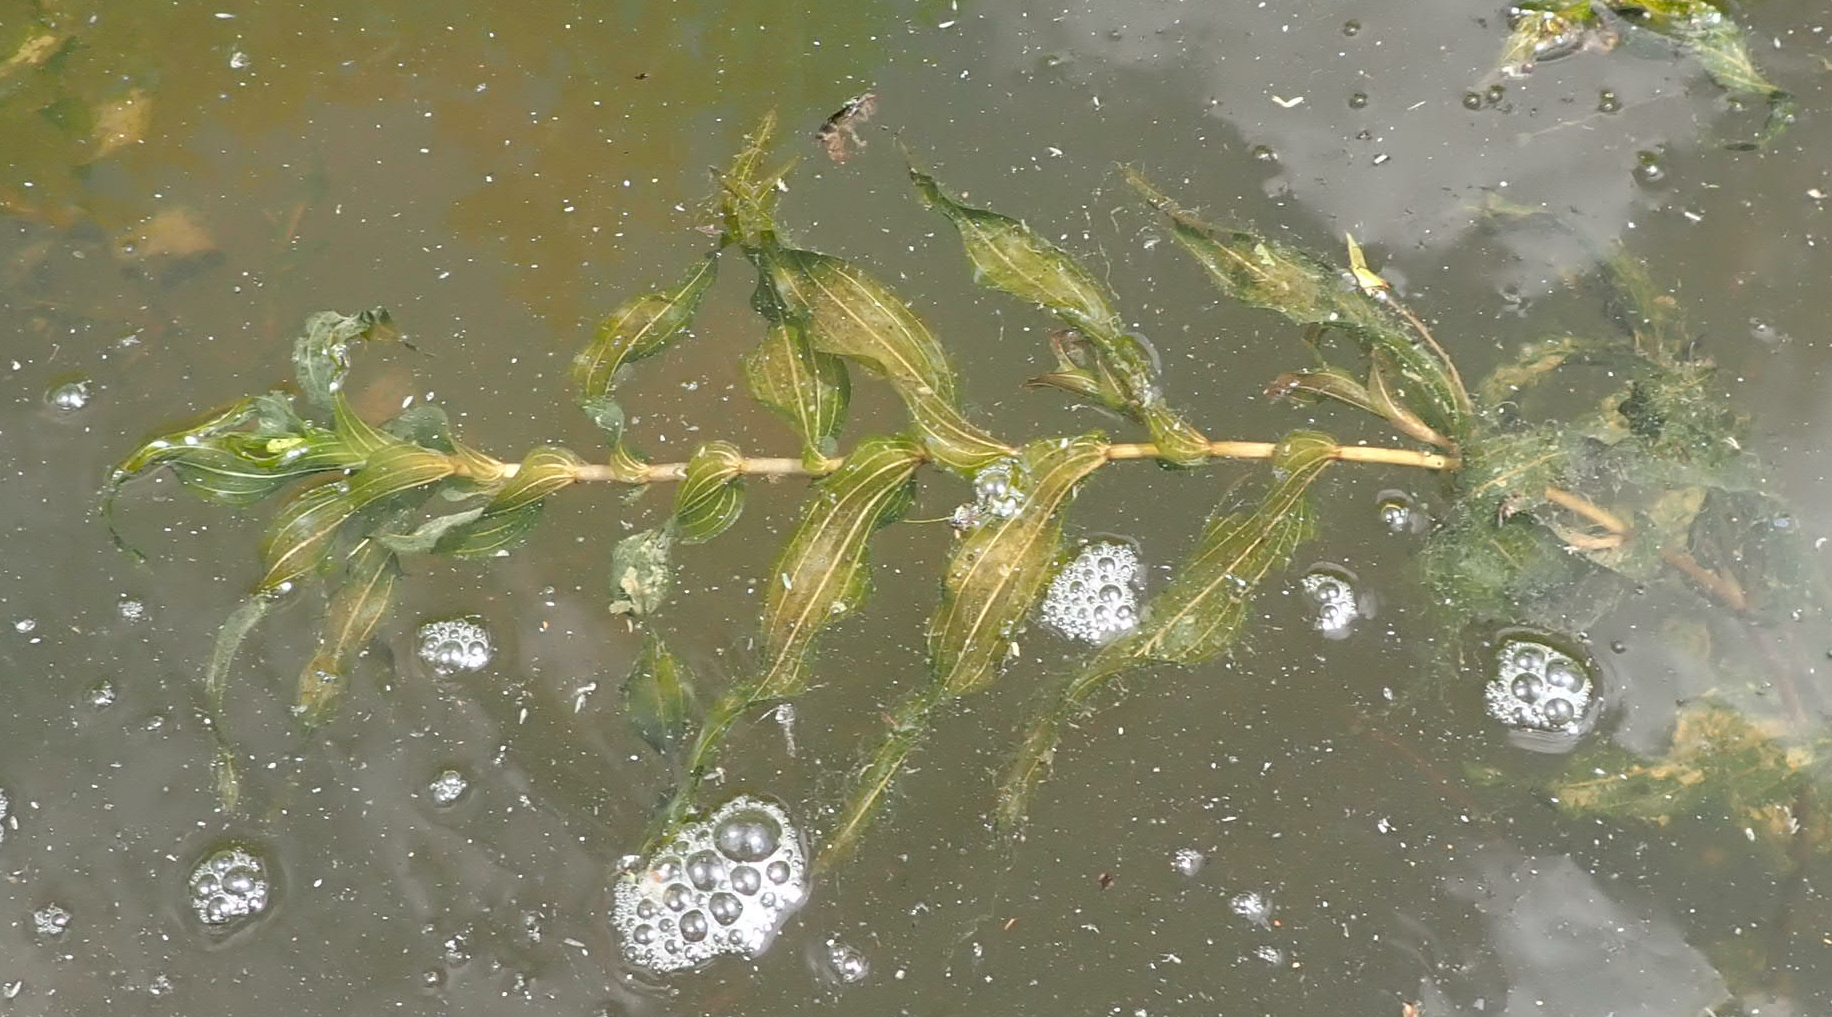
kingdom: Plantae
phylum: Tracheophyta
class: Liliopsida
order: Alismatales
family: Potamogetonaceae
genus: Potamogeton
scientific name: Potamogeton richardsonii
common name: Richardson's pondweed
